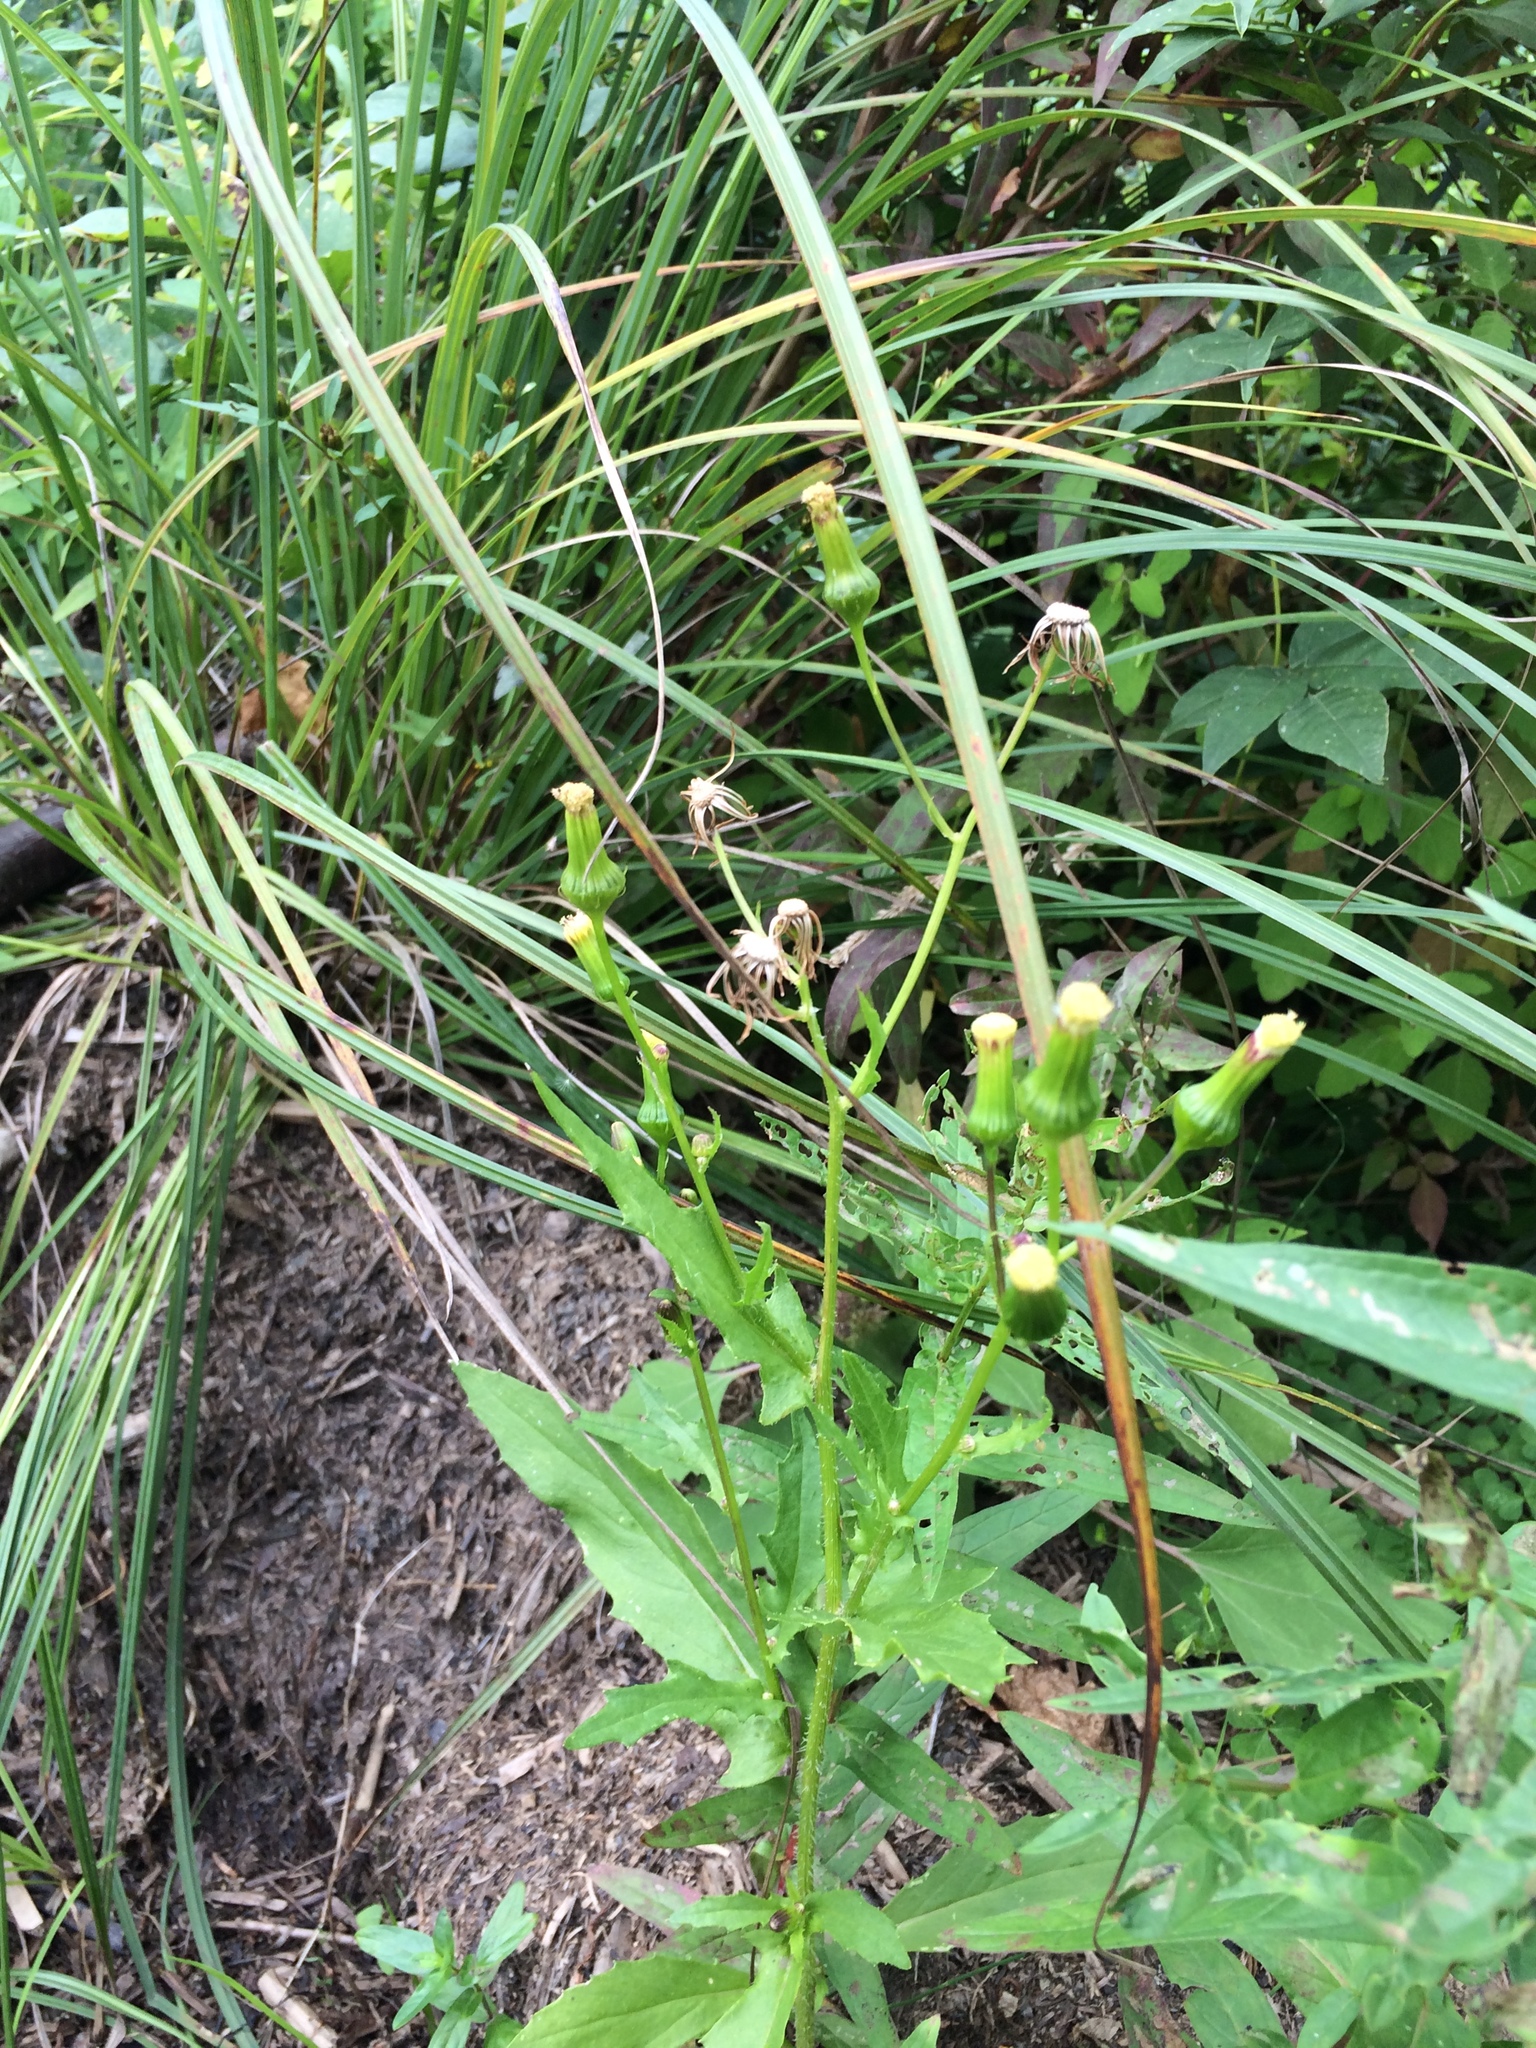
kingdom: Plantae
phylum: Tracheophyta
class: Magnoliopsida
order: Asterales
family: Asteraceae
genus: Erechtites
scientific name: Erechtites hieraciifolius
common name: American burnweed
